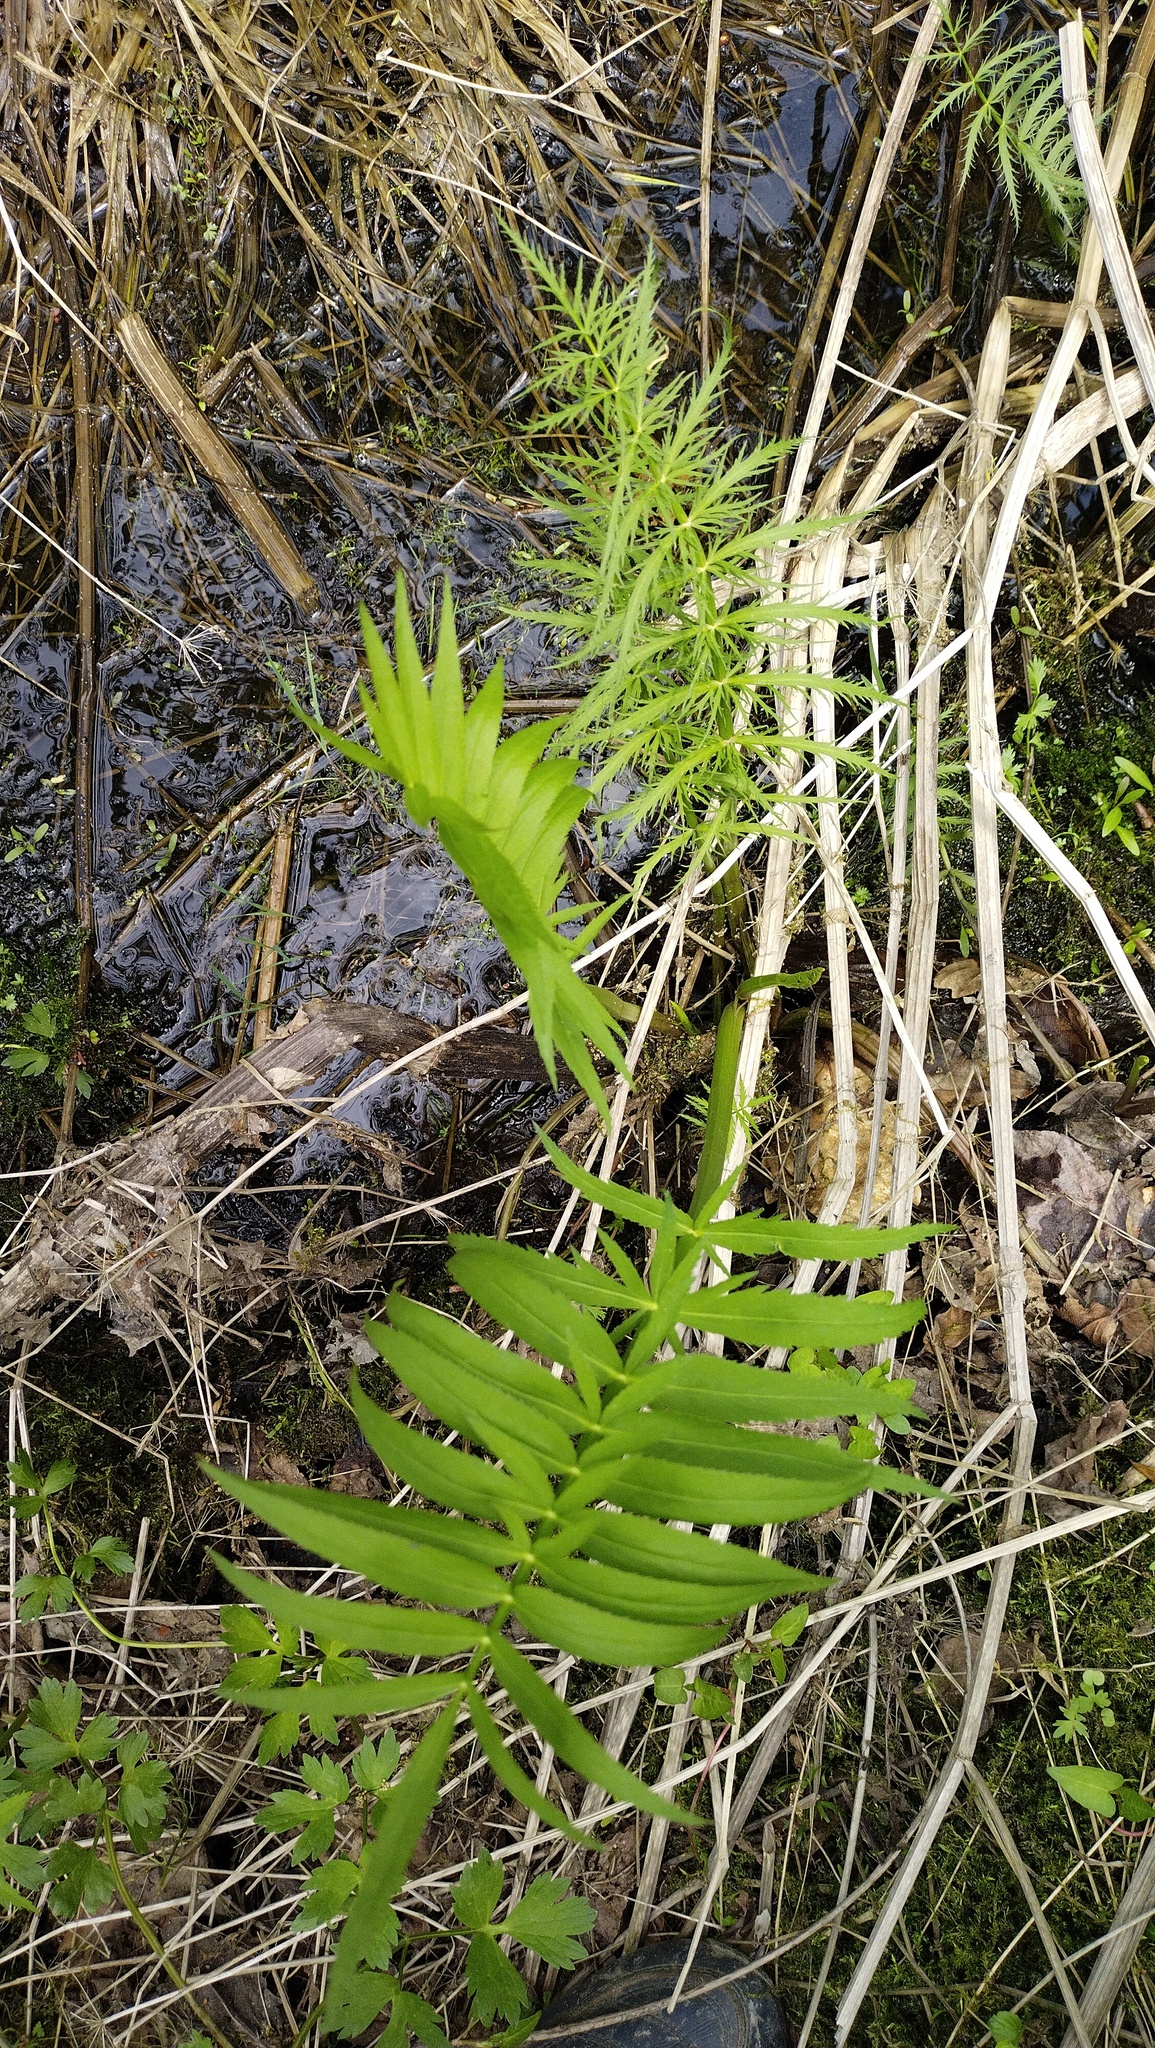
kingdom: Plantae
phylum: Tracheophyta
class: Magnoliopsida
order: Apiales
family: Apiaceae
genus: Sium
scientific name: Sium suave
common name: Hemlock water-parsnip
